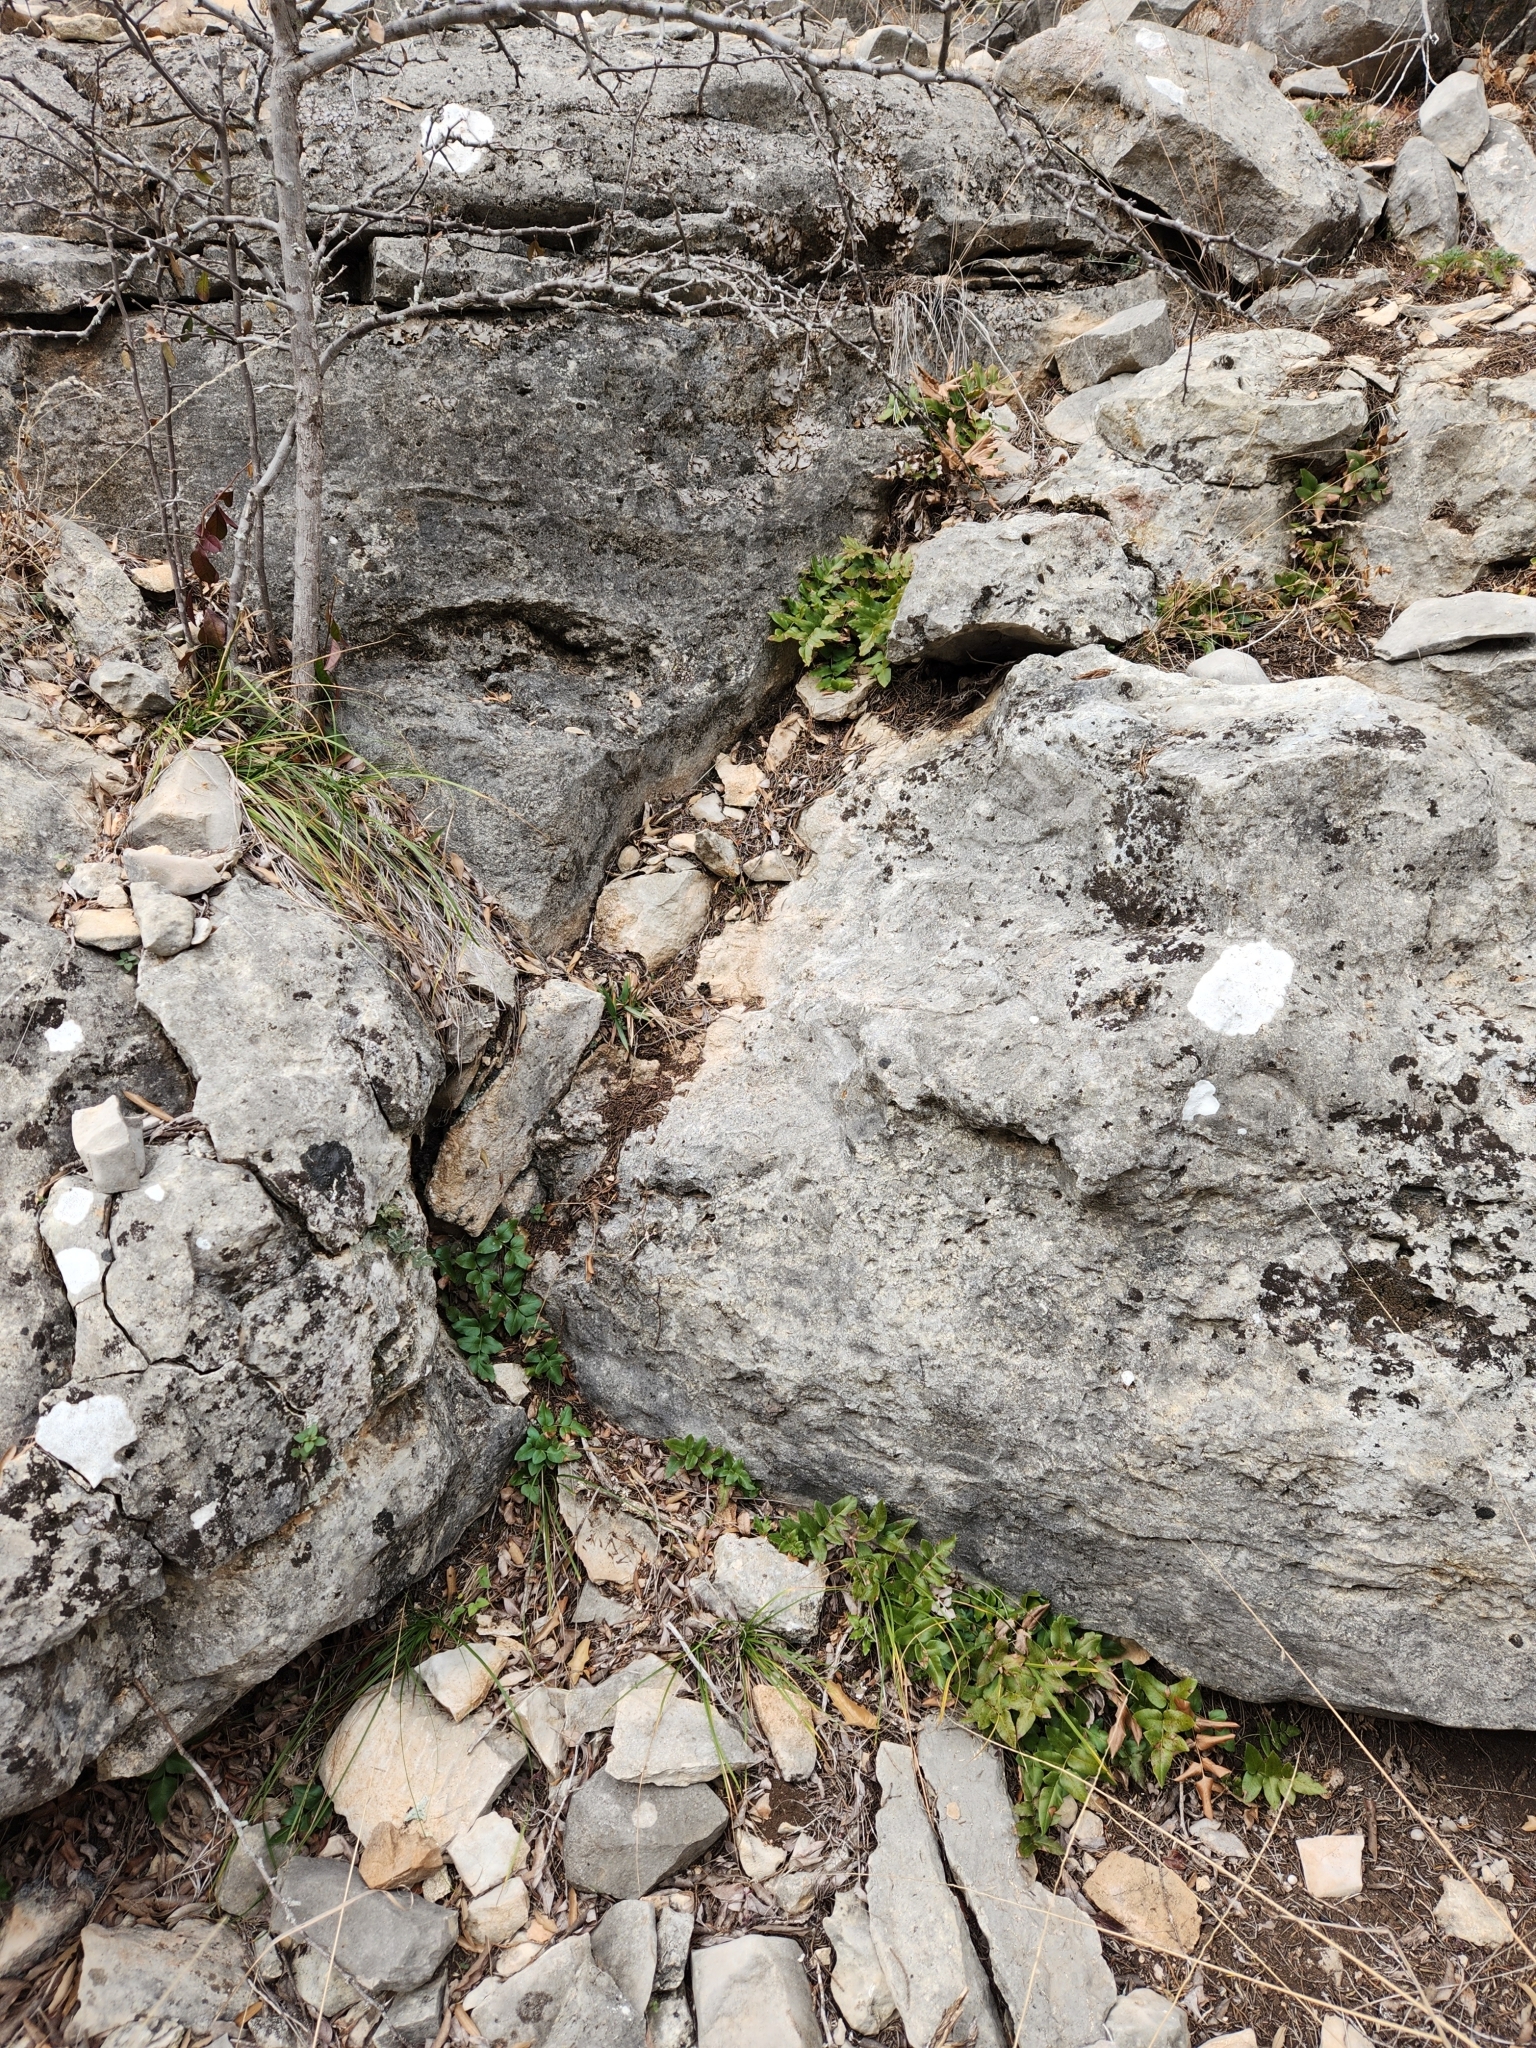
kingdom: Plantae
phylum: Tracheophyta
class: Polypodiopsida
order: Schizaeales
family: Anemiaceae
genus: Anemia
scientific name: Anemia mexicana
